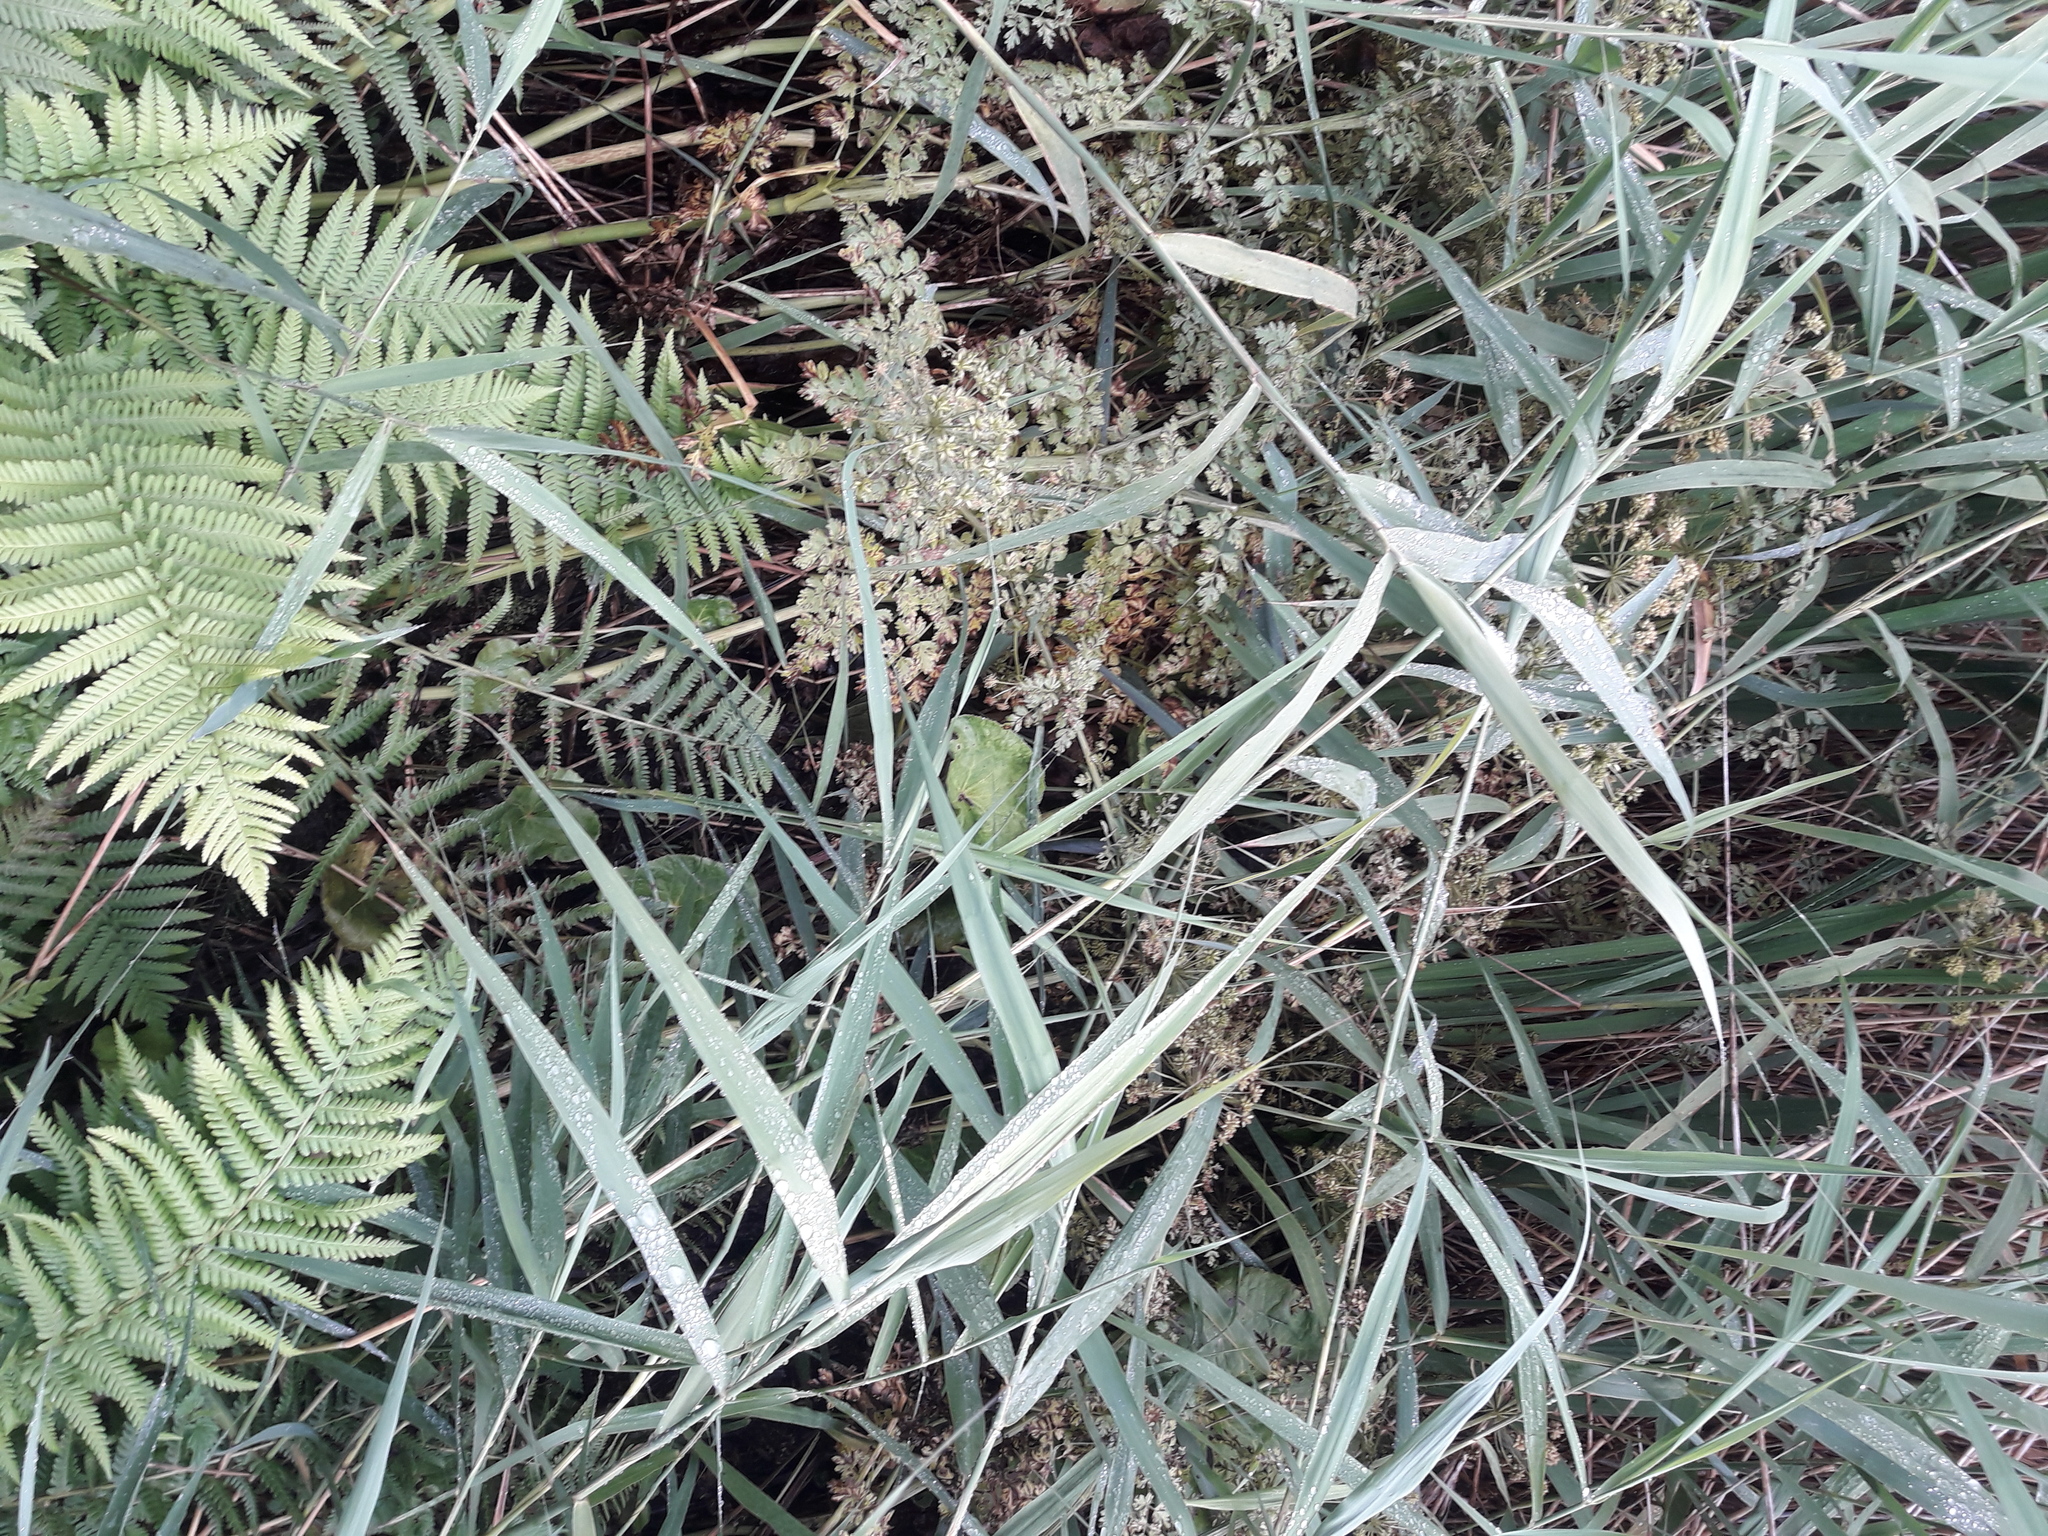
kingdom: Plantae
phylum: Tracheophyta
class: Magnoliopsida
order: Apiales
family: Apiaceae
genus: Oenanthe
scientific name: Oenanthe crocata
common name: Hemlock water-dropwort
